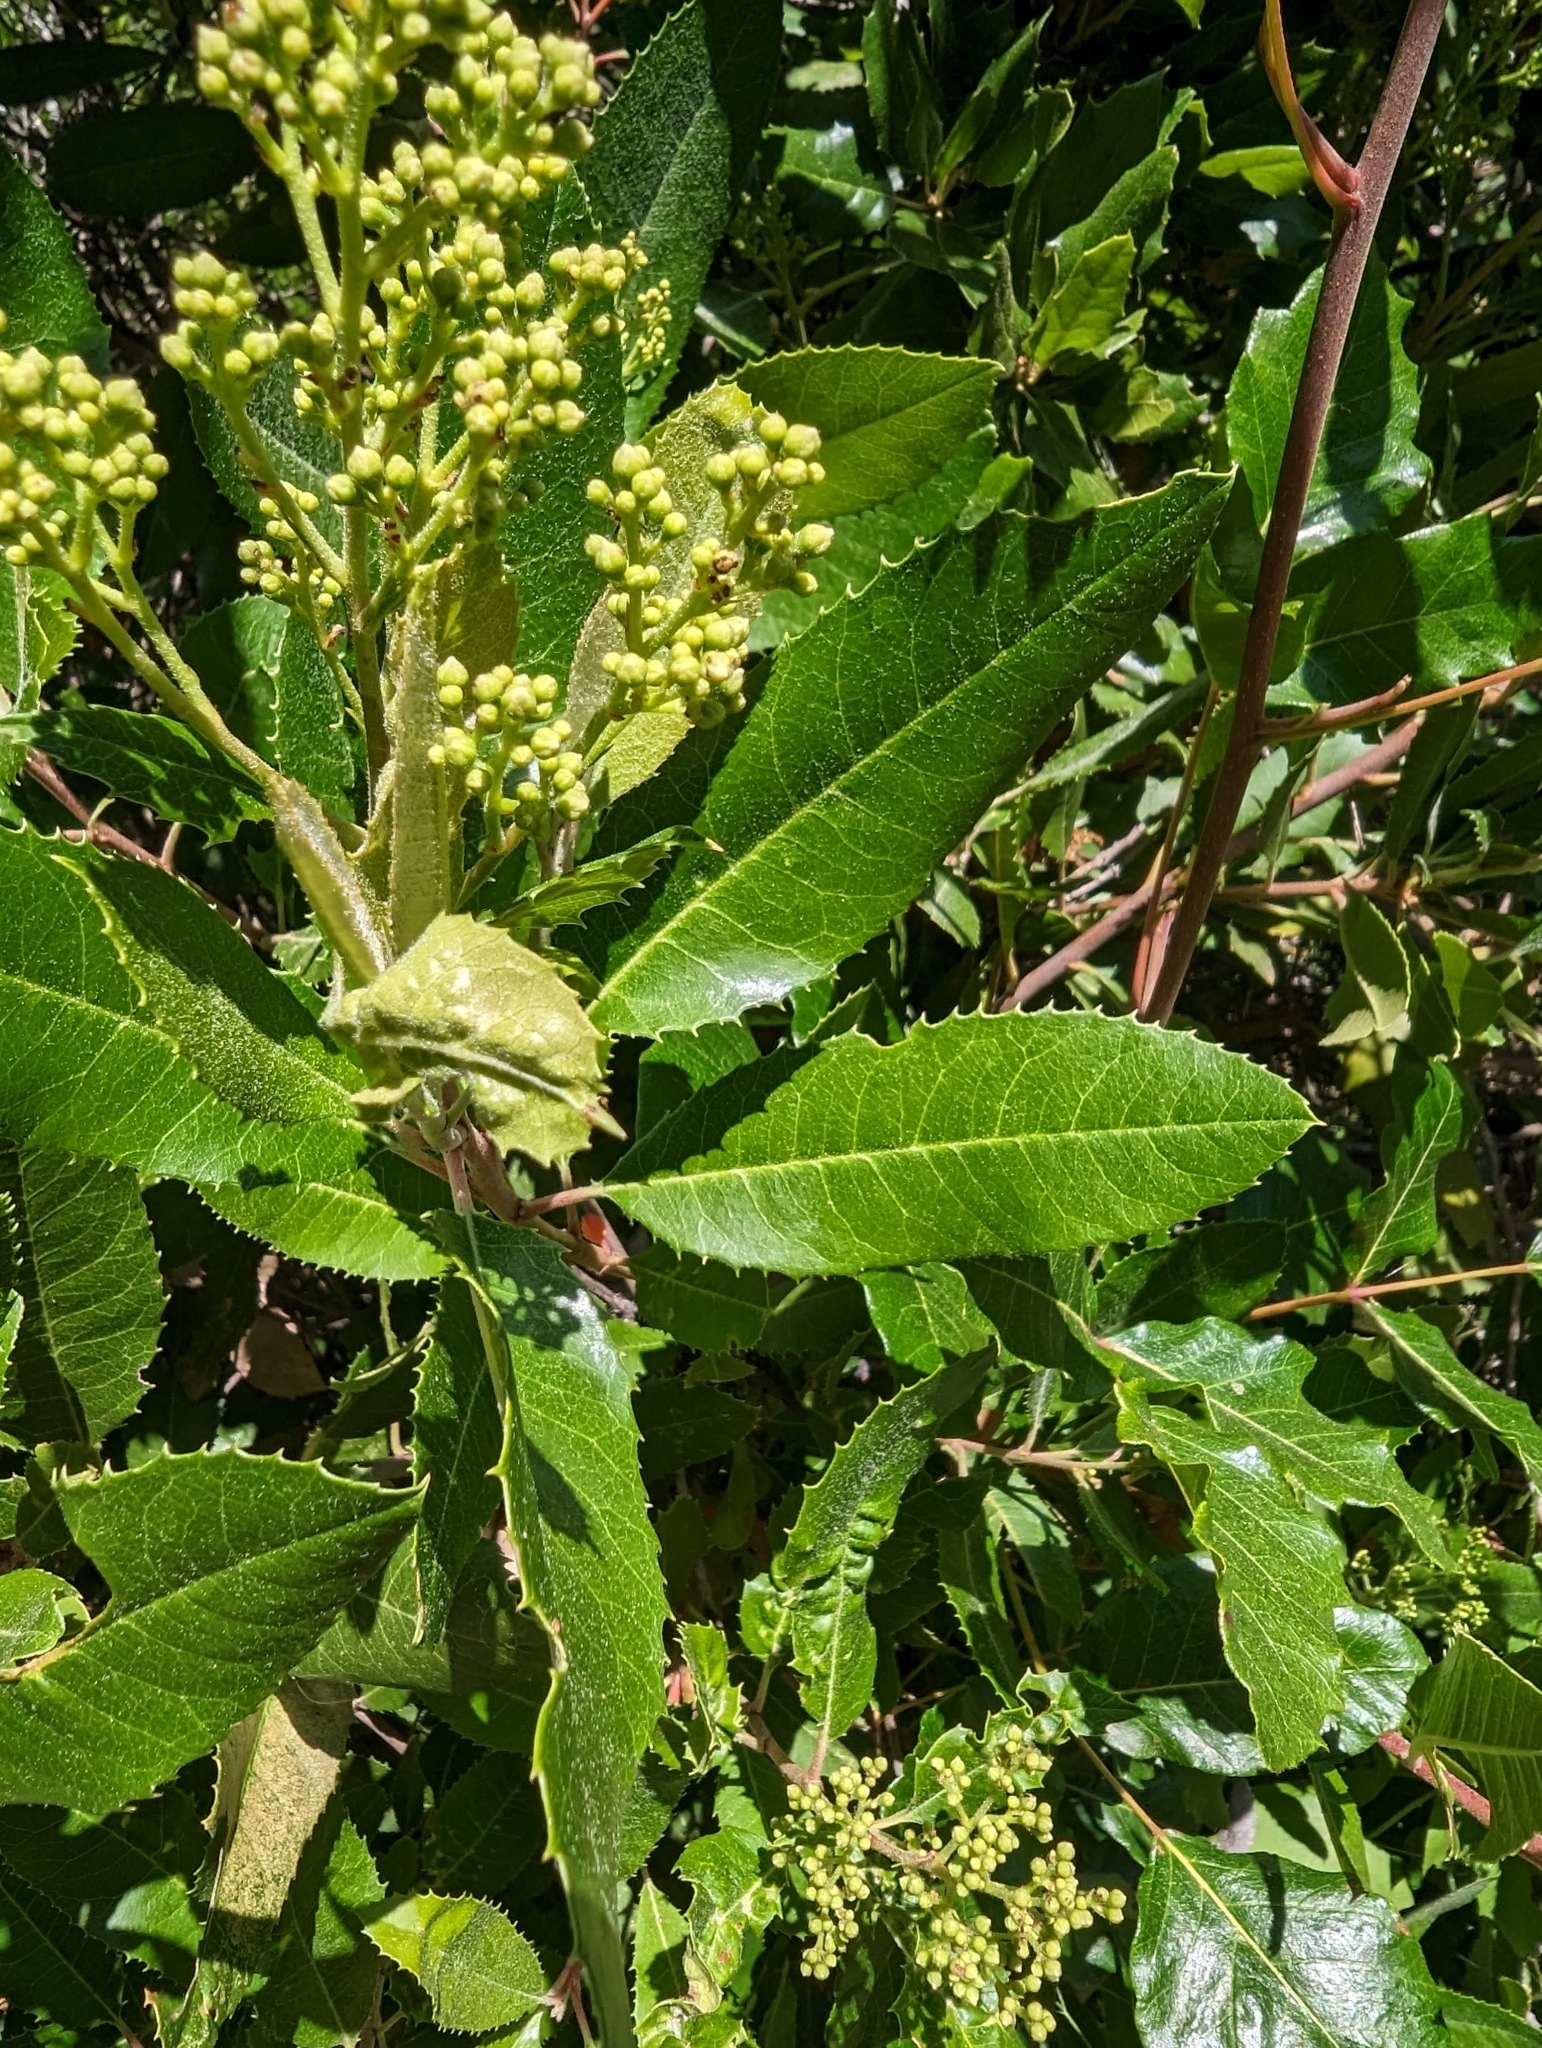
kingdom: Plantae
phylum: Tracheophyta
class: Magnoliopsida
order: Rosales
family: Rosaceae
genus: Heteromeles
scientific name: Heteromeles arbutifolia
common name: California-holly
